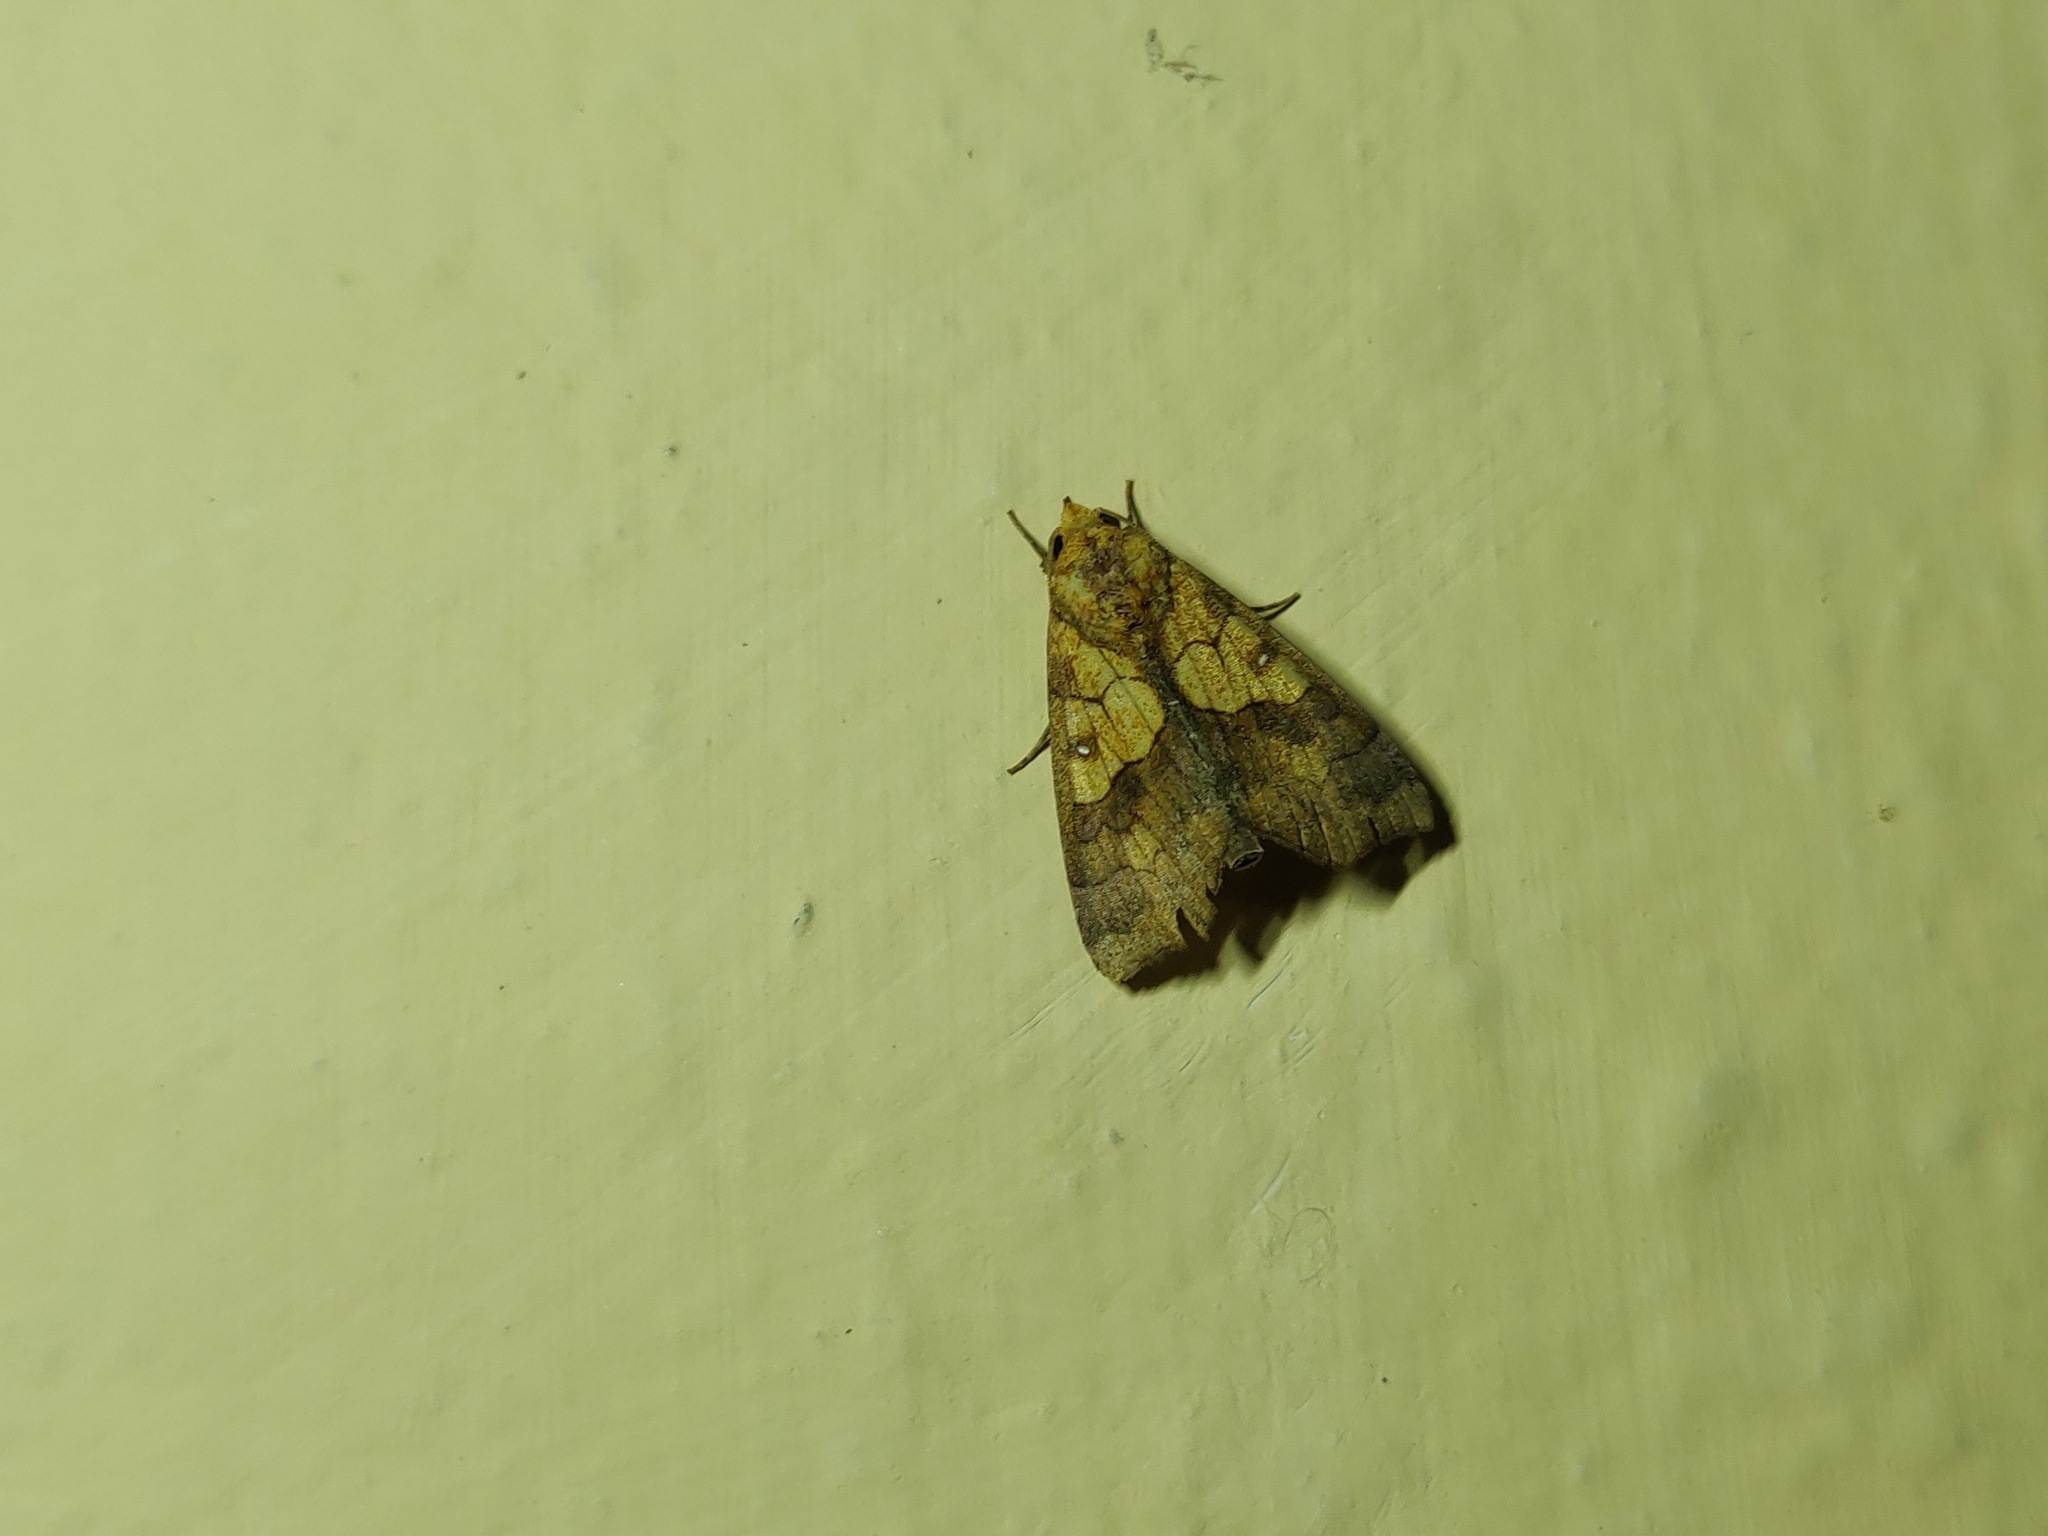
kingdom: Animalia
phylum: Arthropoda
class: Insecta
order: Lepidoptera
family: Erebidae
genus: Anomis
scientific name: Anomis flava
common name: Moth
